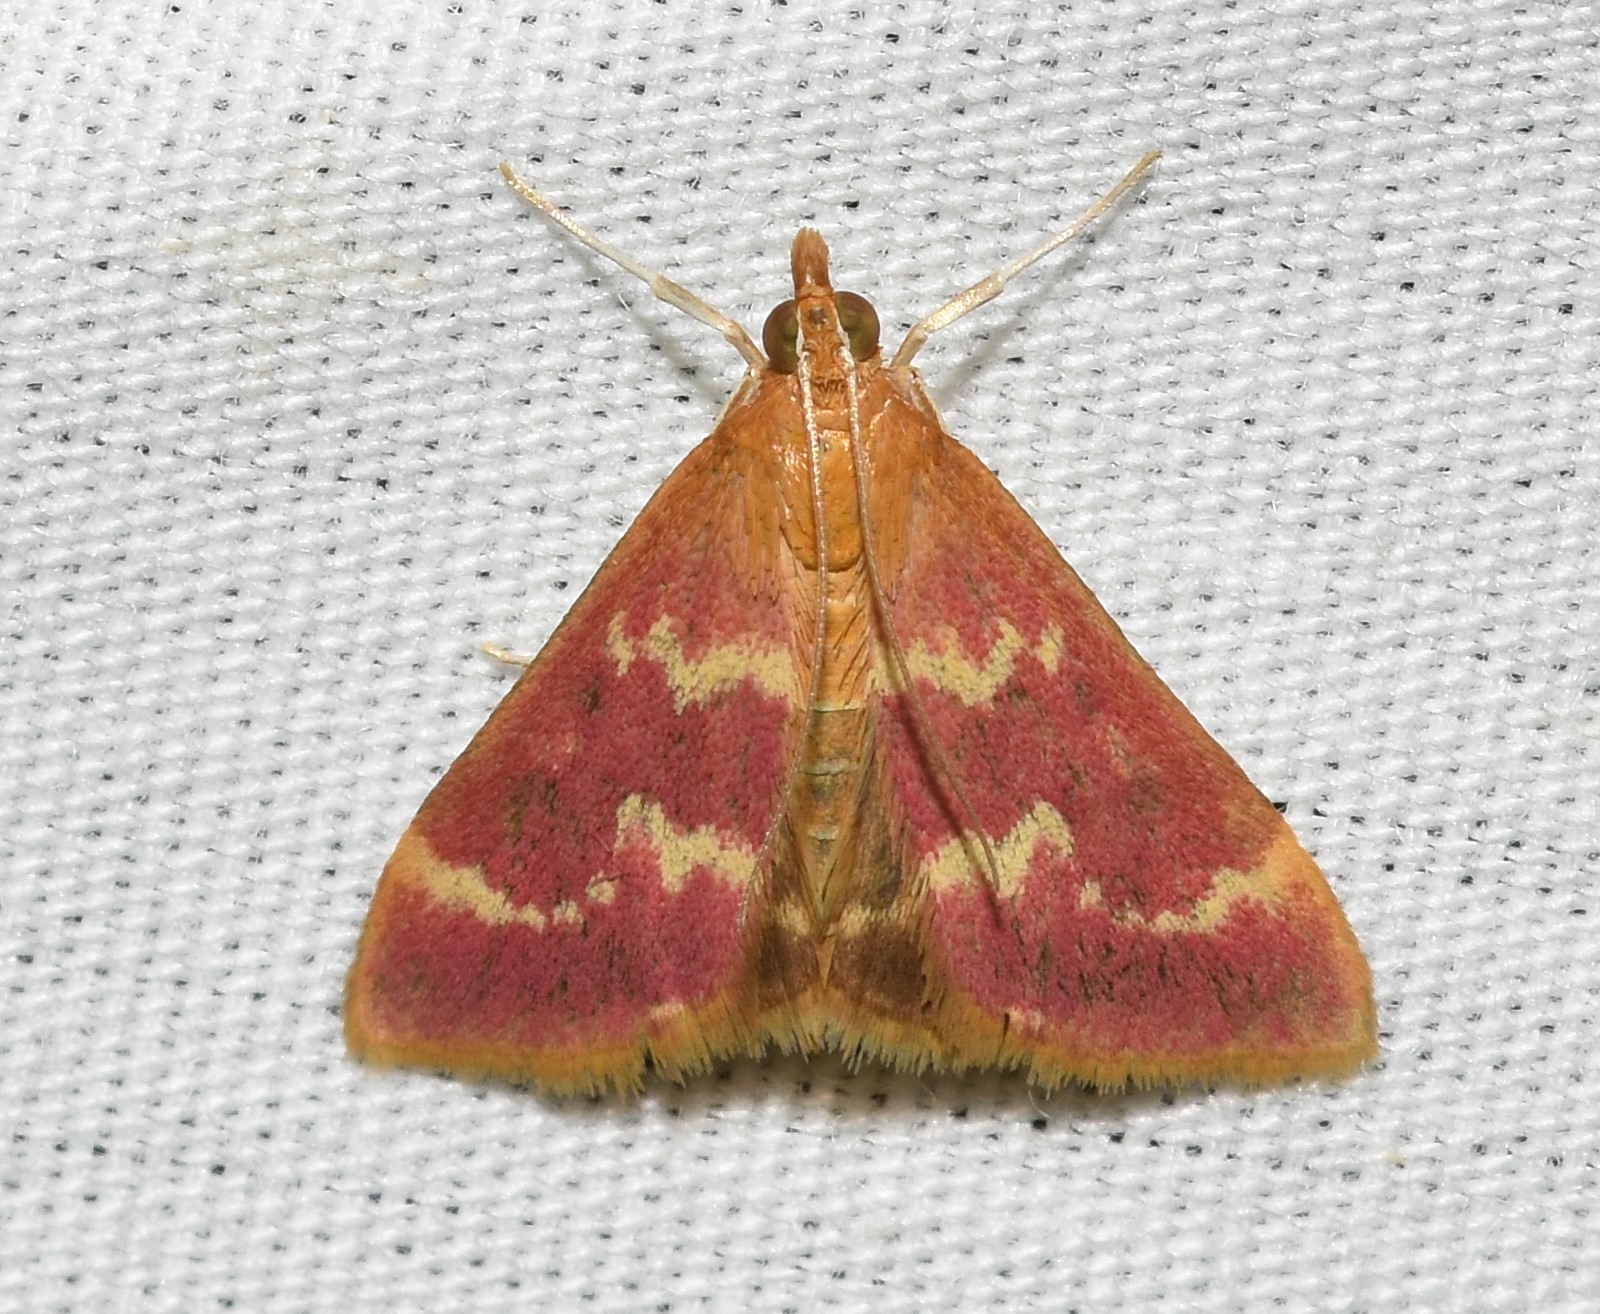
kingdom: Animalia
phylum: Arthropoda
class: Insecta
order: Lepidoptera
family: Crambidae
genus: Pyrausta
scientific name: Pyrausta signatalis
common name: Raspberry pyrausta moth
